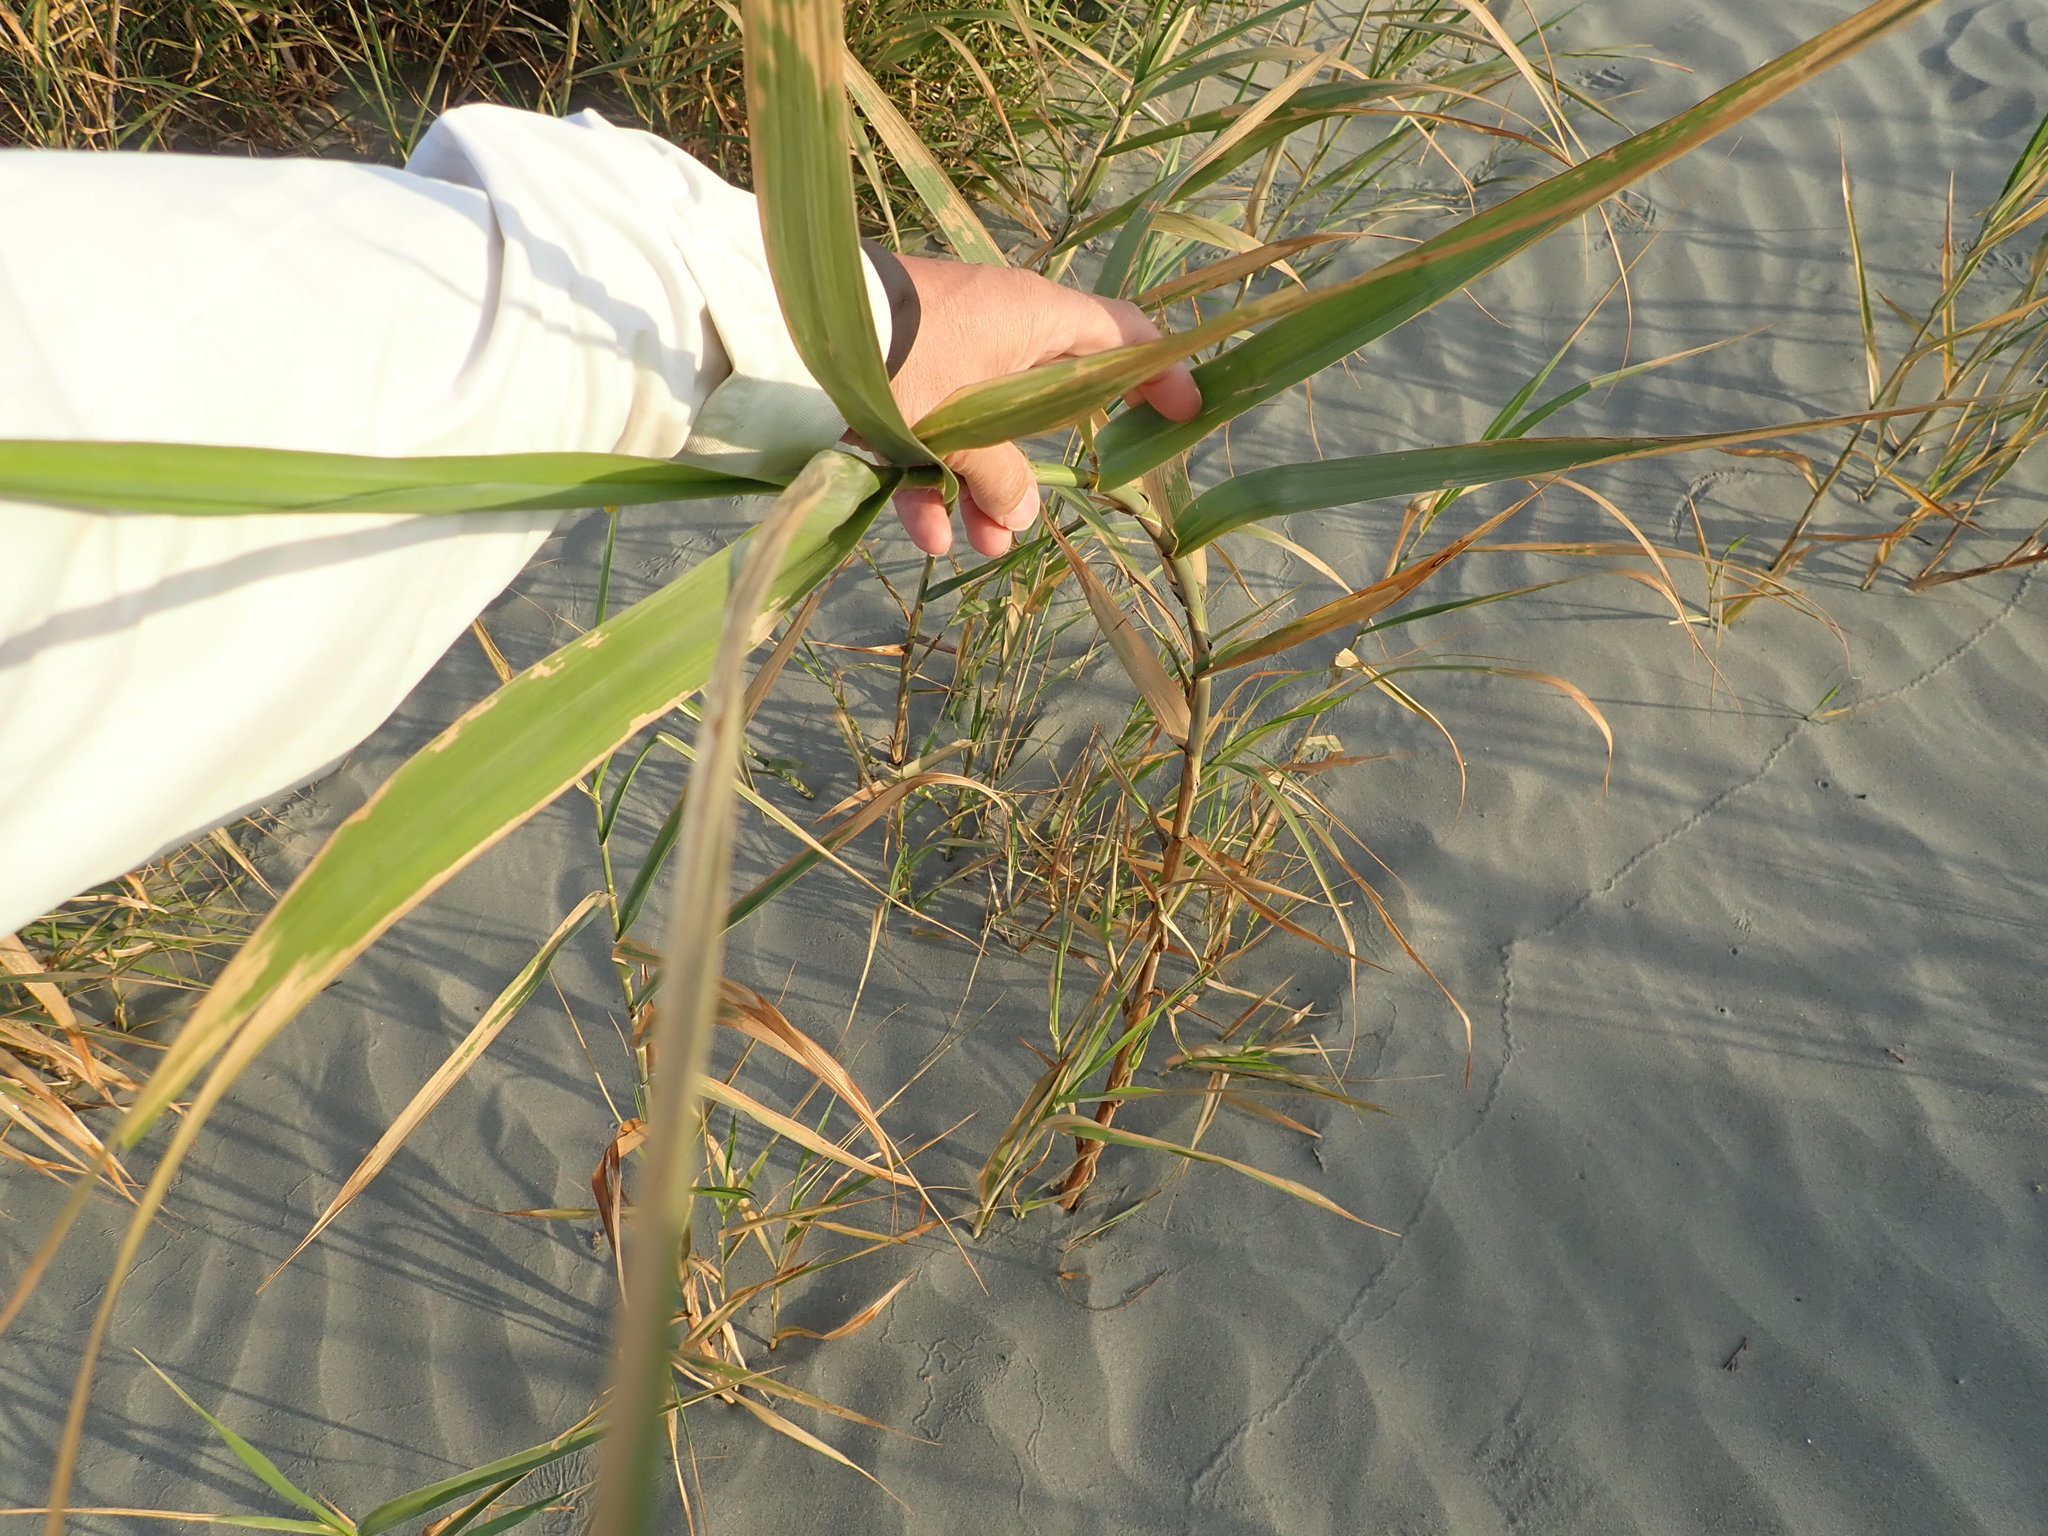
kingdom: Plantae
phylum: Tracheophyta
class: Liliopsida
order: Poales
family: Poaceae
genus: Arundo
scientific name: Arundo donax
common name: Giant reed
